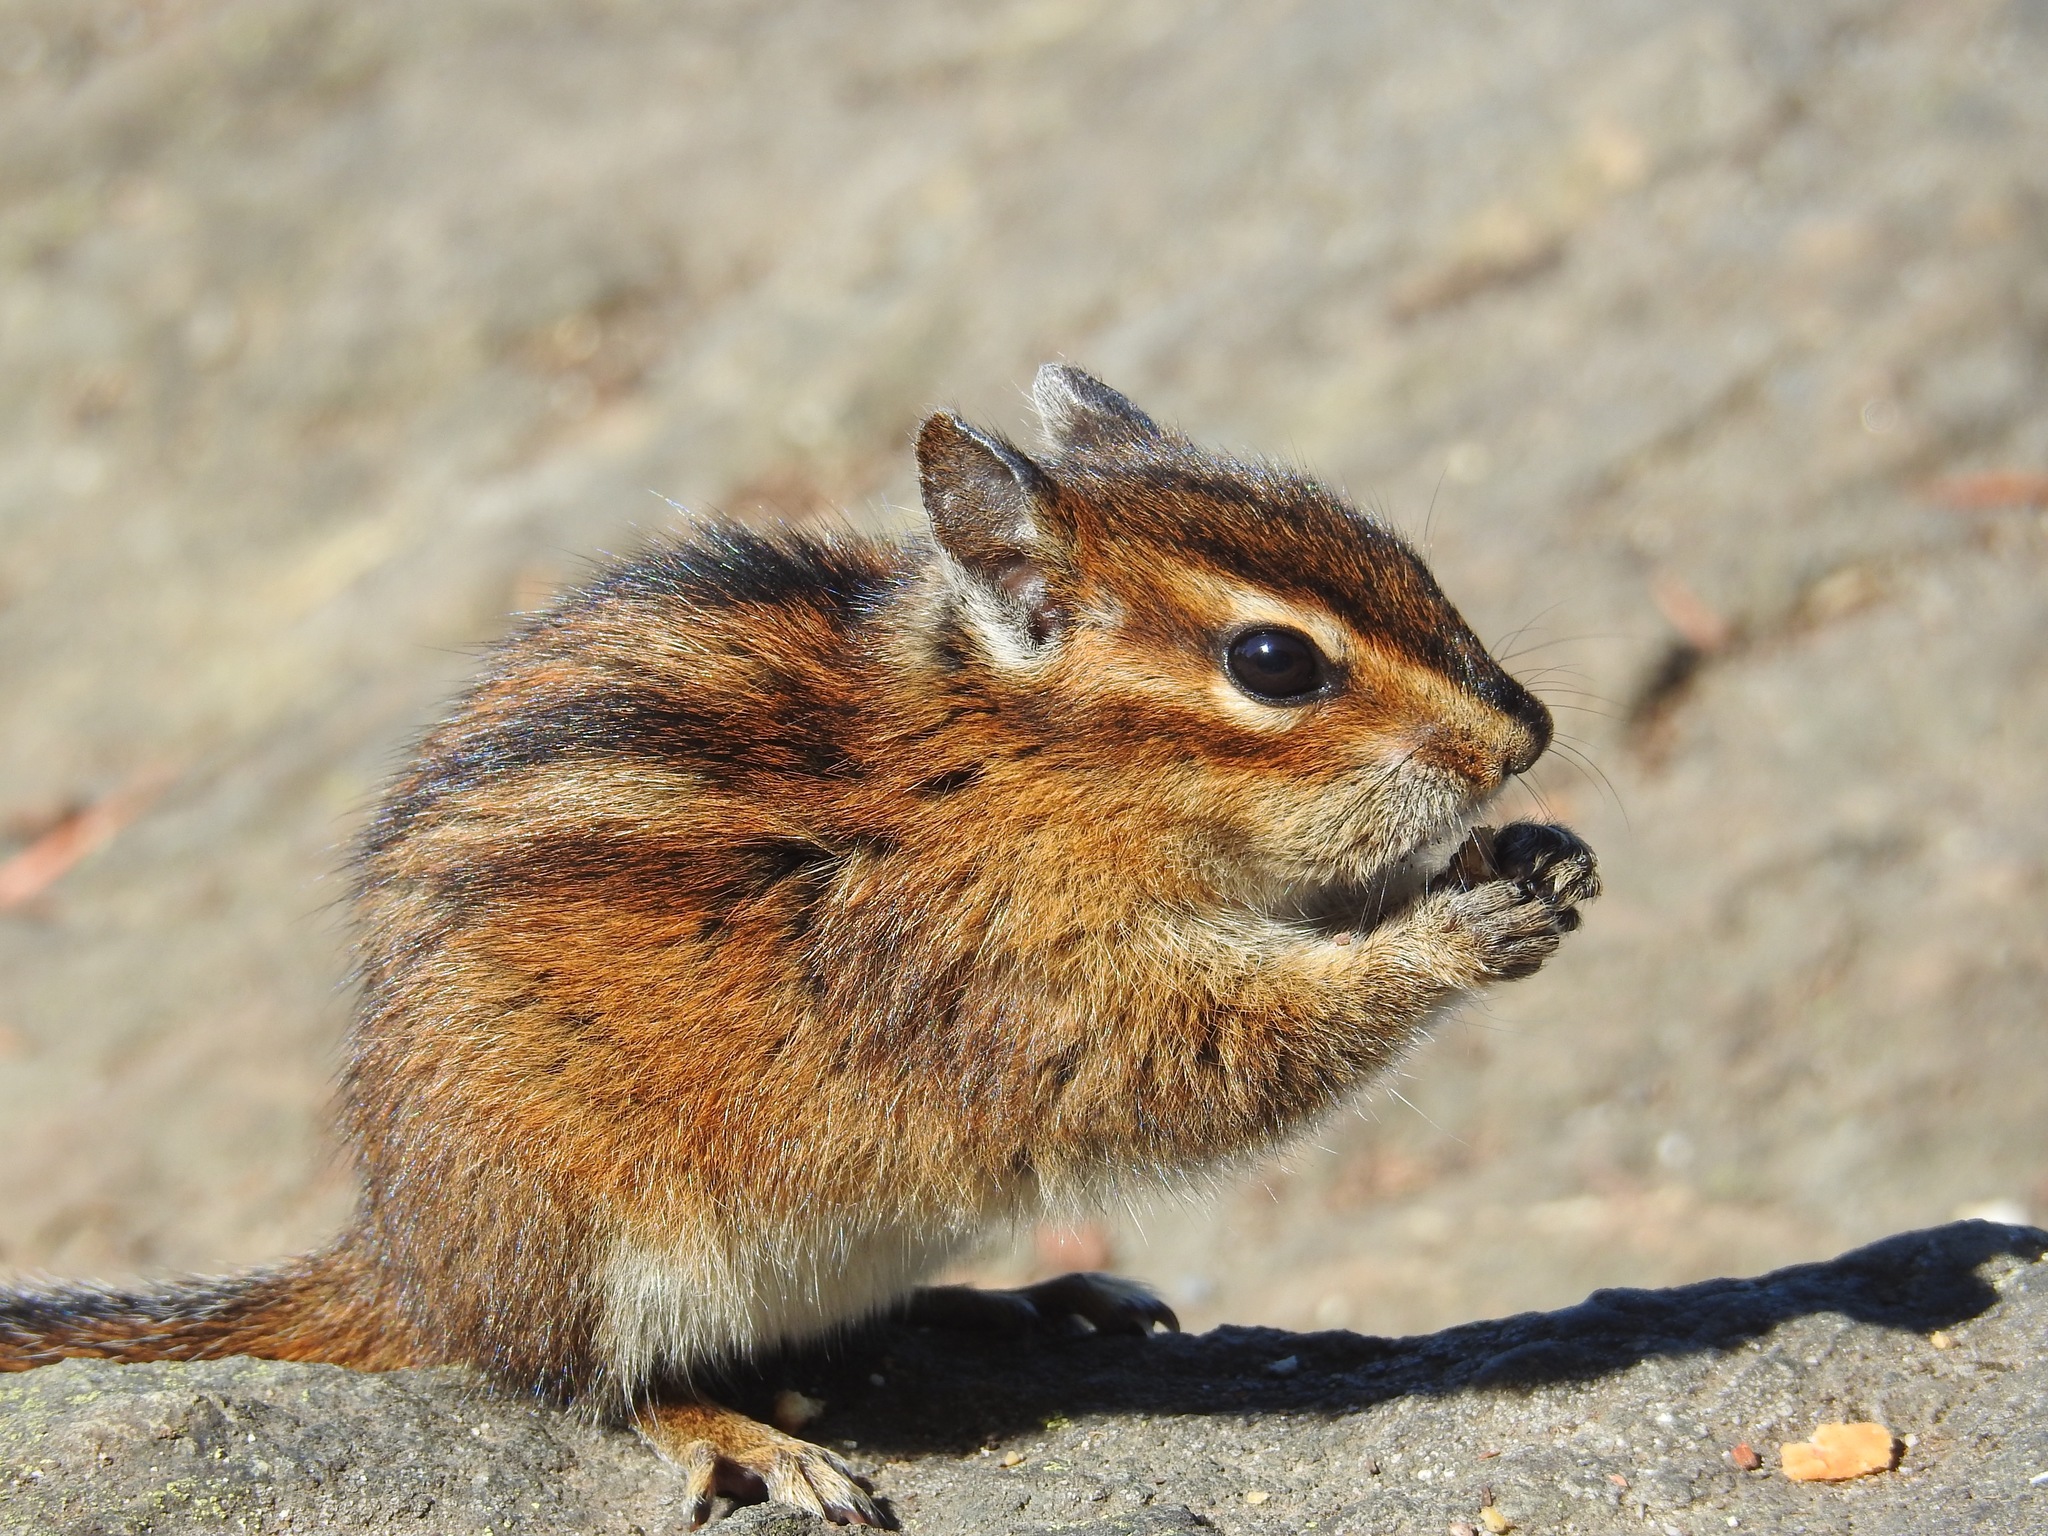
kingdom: Animalia
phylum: Chordata
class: Mammalia
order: Rodentia
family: Sciuridae
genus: Tamias
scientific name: Tamias townsendii
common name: Townsend's chipmunk
